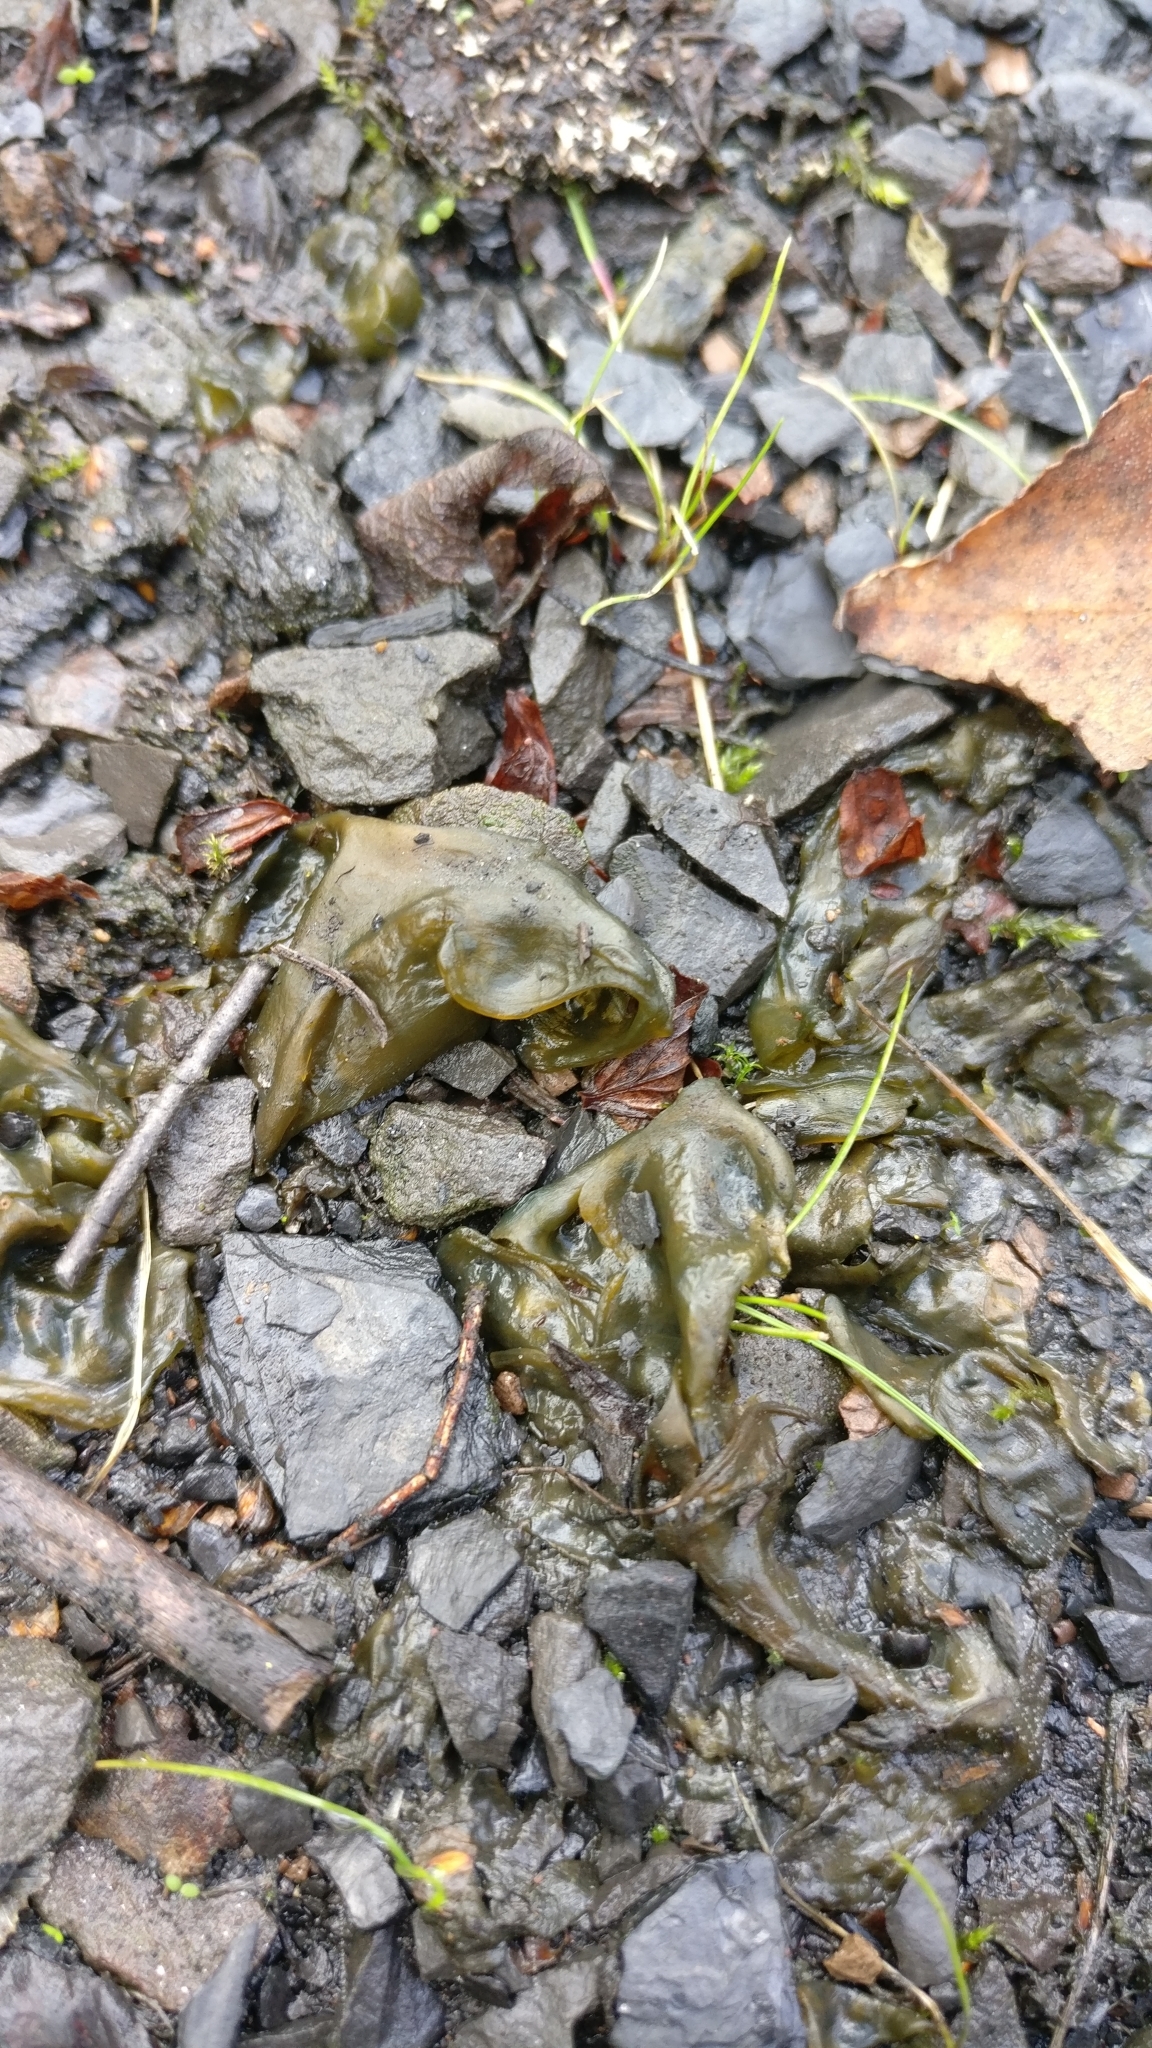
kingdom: Bacteria
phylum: Cyanobacteria
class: Cyanobacteriia
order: Cyanobacteriales
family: Nostocaceae
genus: Nostoc
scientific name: Nostoc commune
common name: Star jelly
